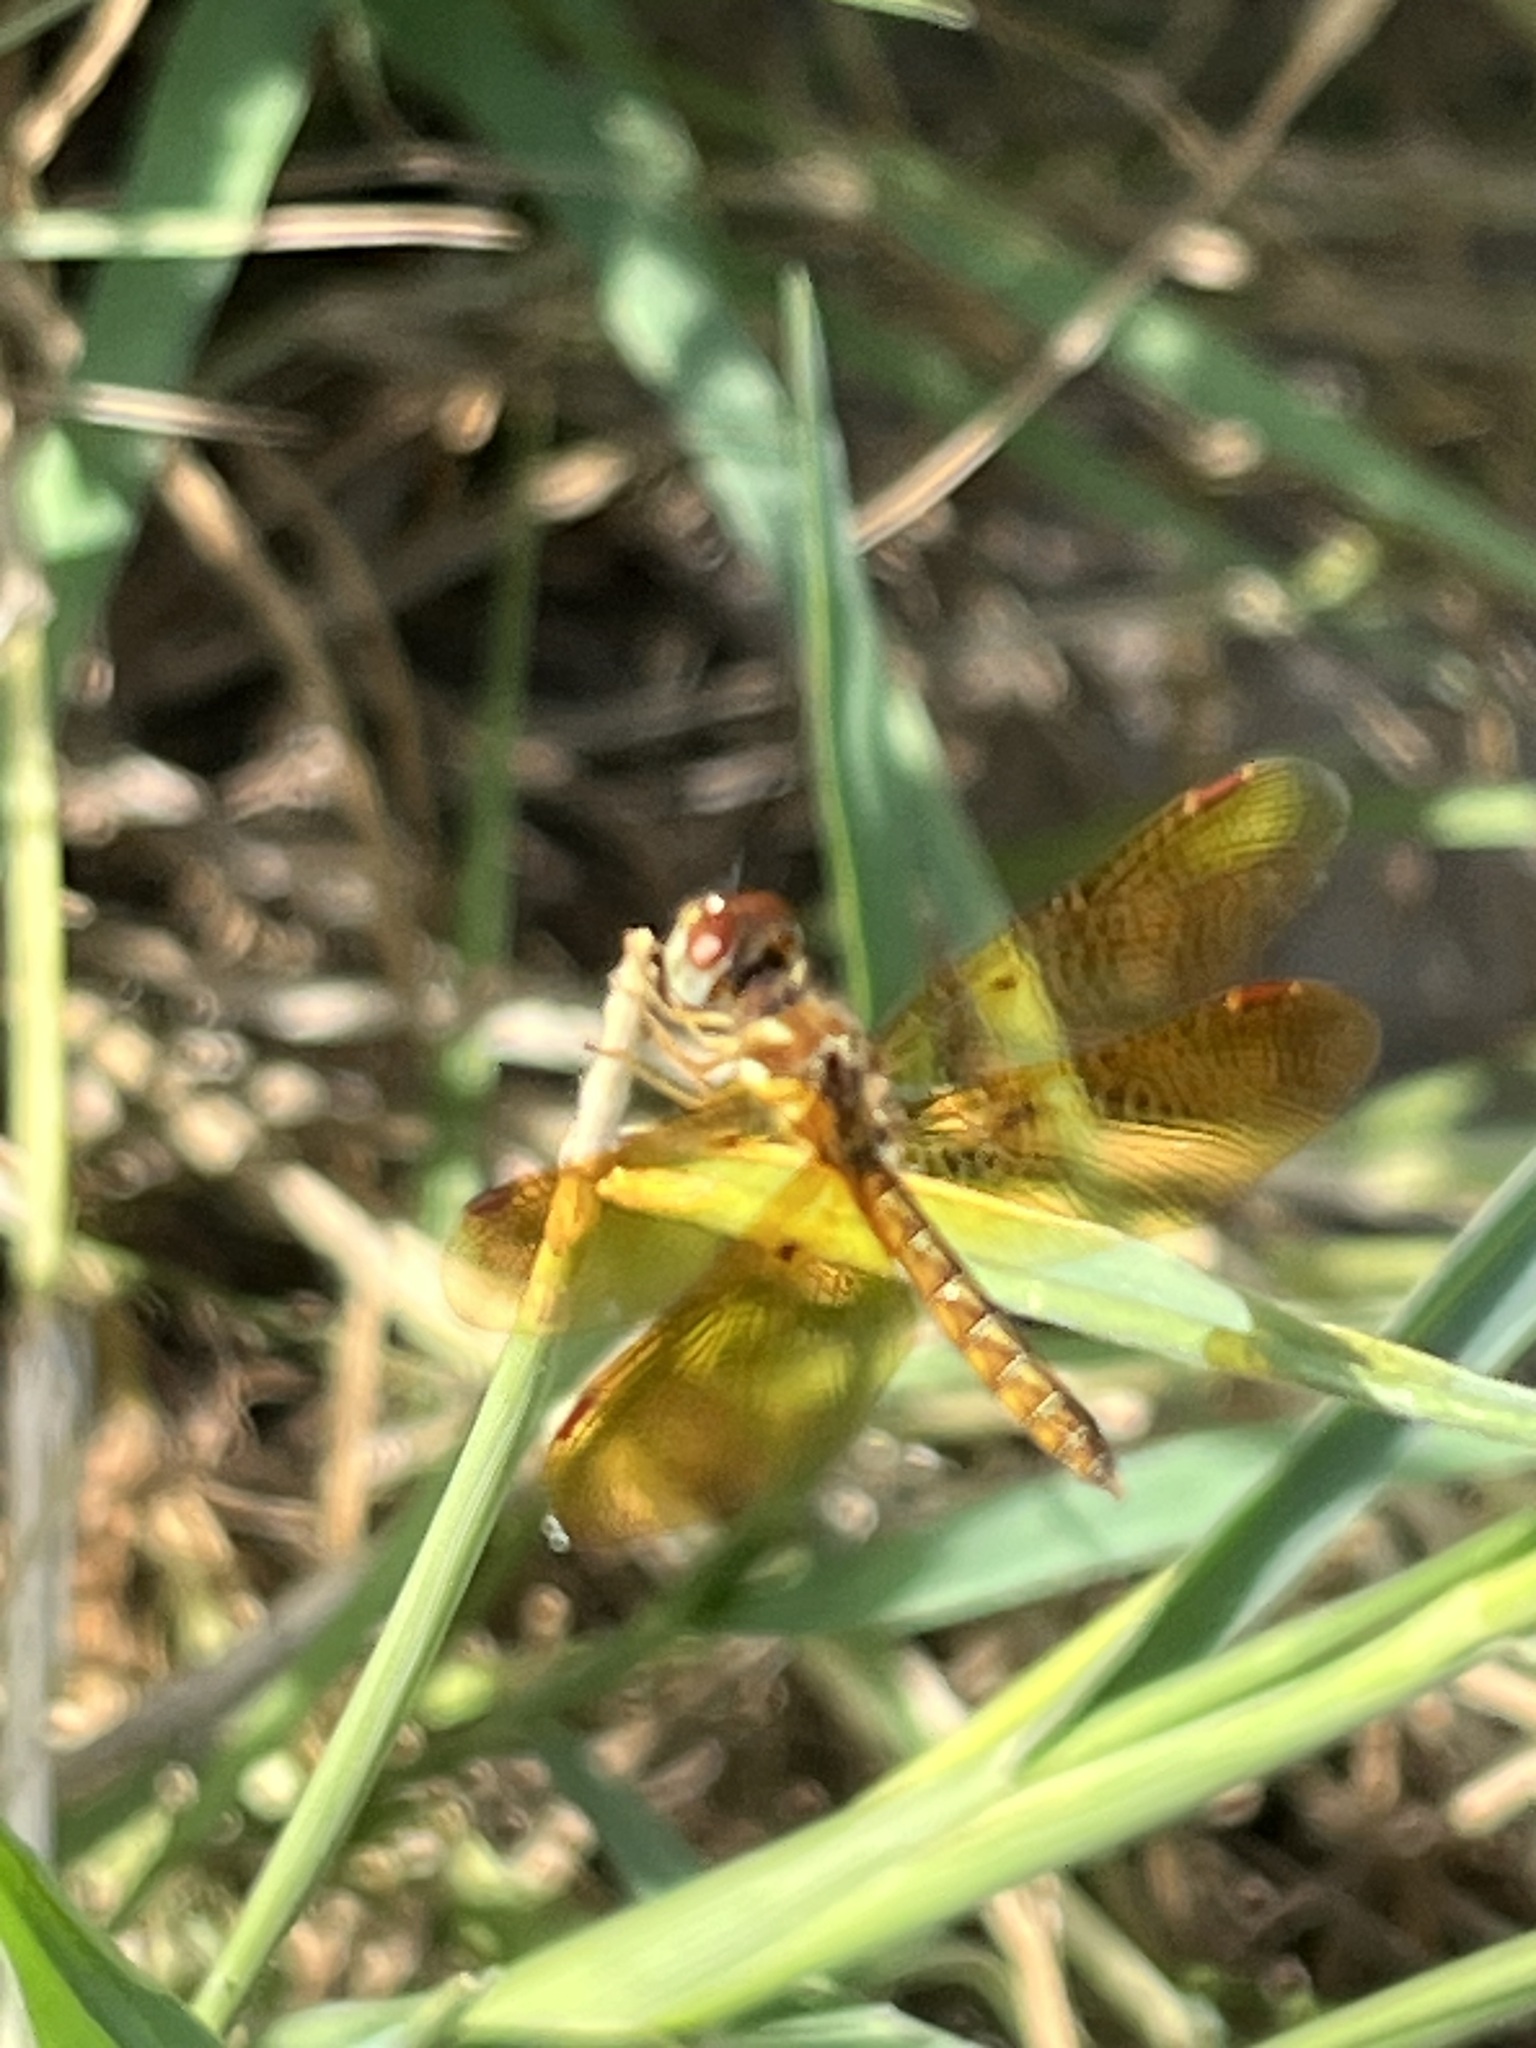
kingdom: Animalia
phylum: Arthropoda
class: Insecta
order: Odonata
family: Libellulidae
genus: Perithemis
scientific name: Perithemis tenera
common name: Eastern amberwing
